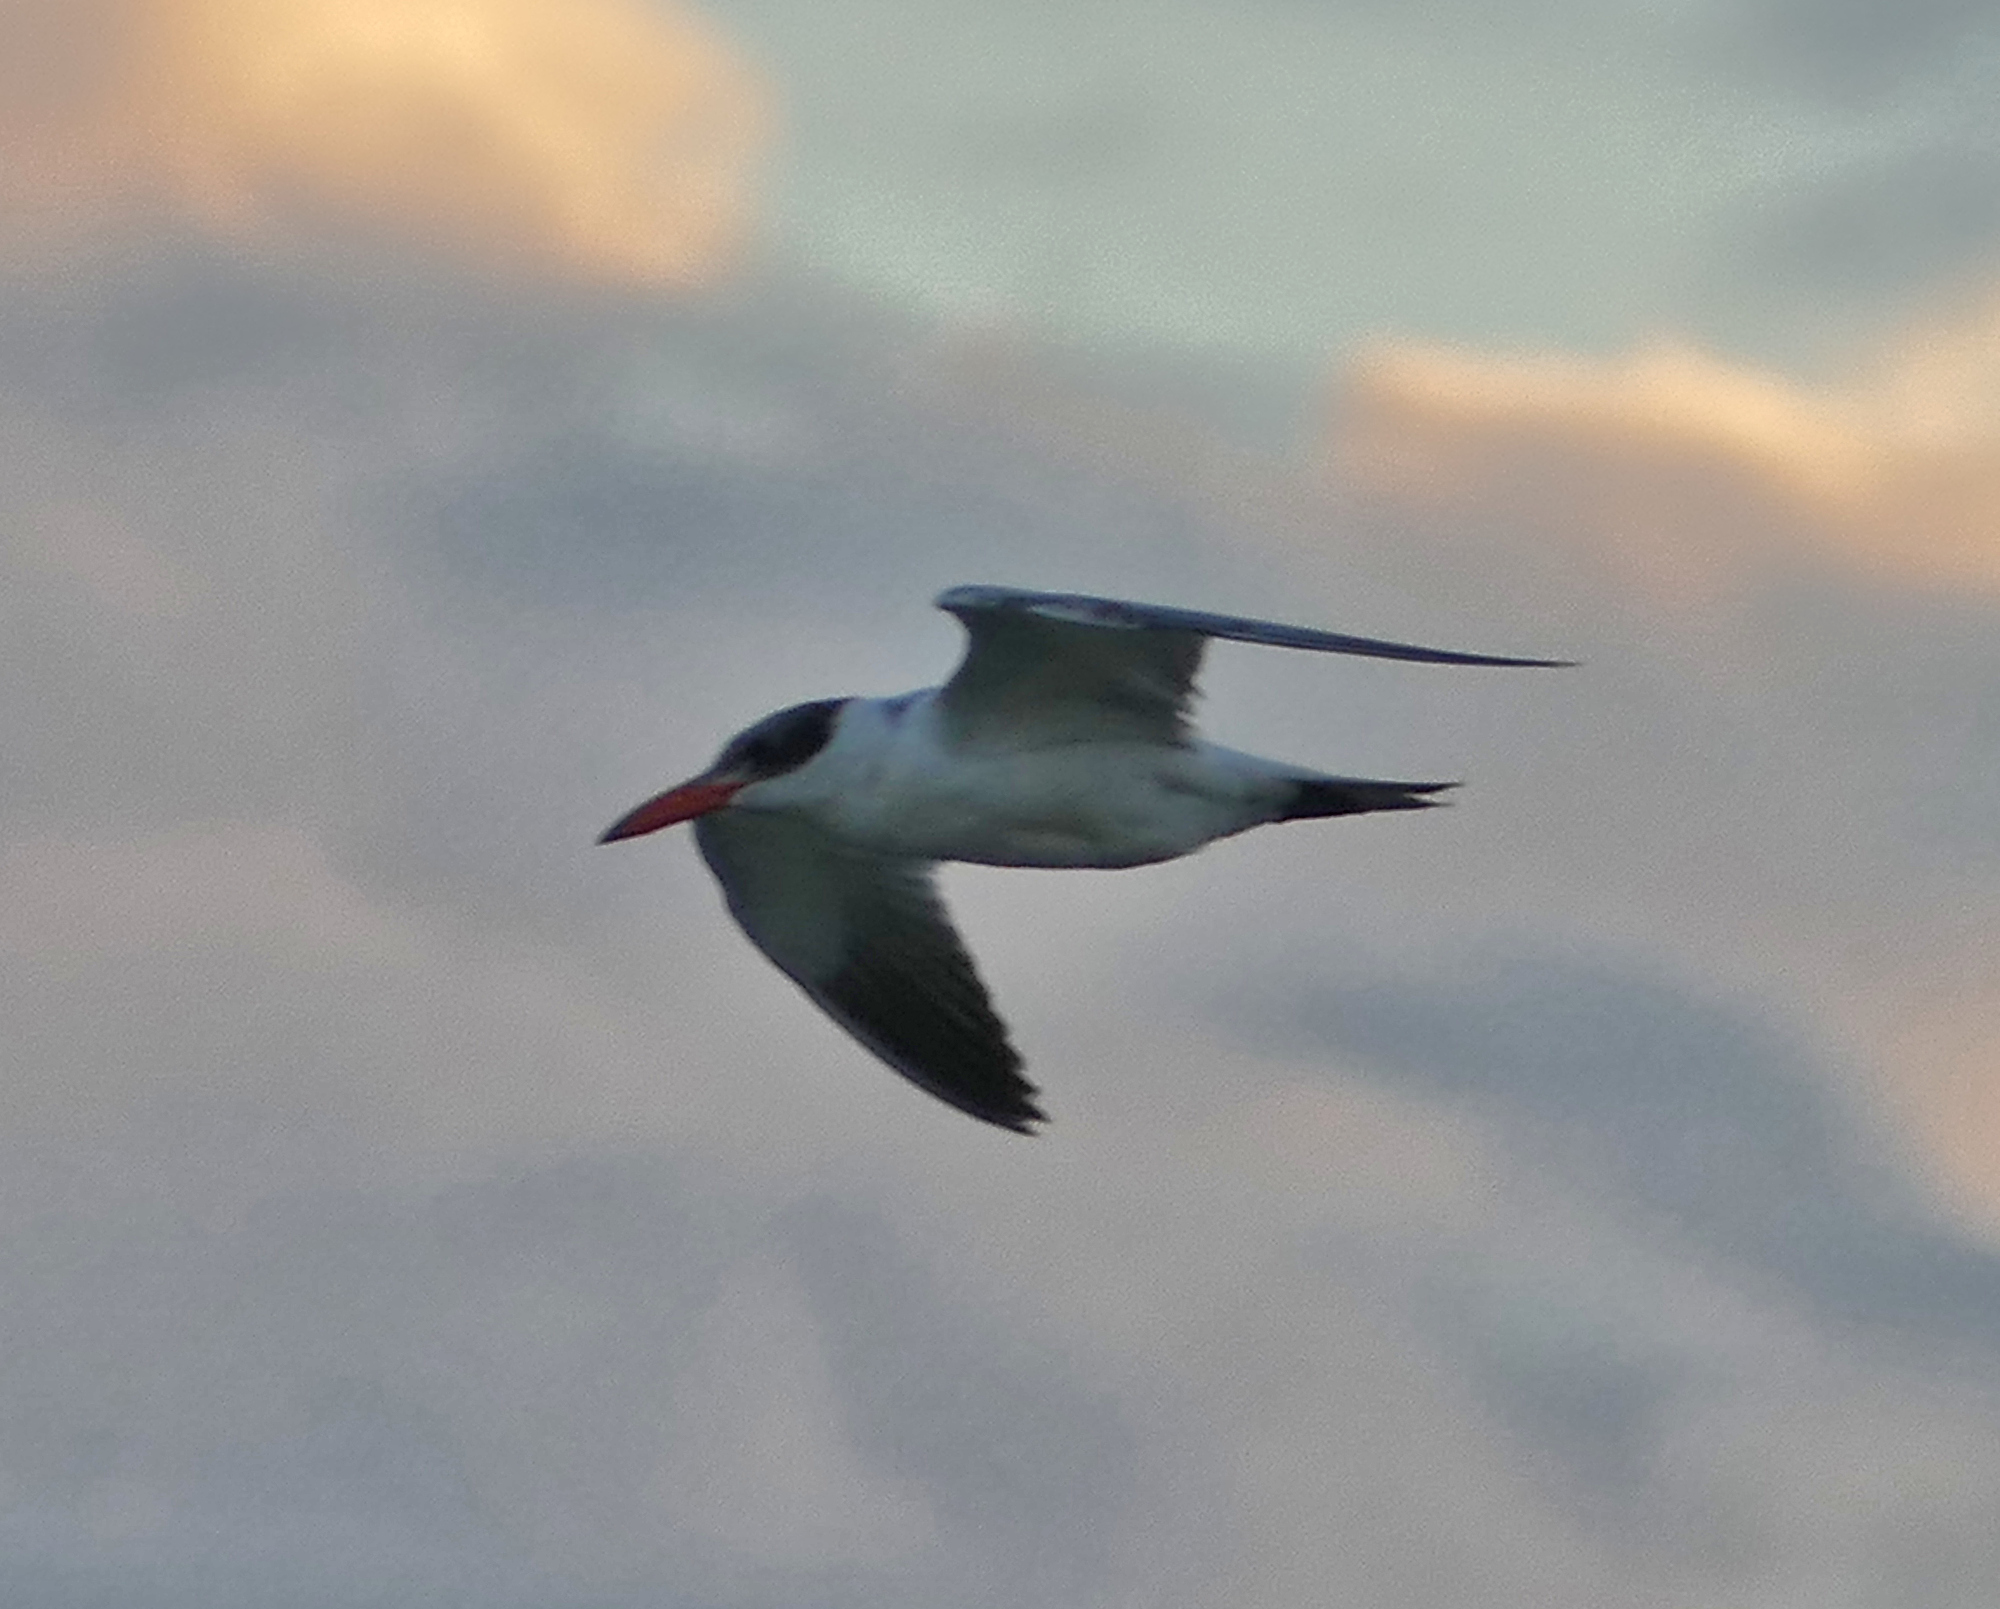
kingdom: Animalia
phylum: Chordata
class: Aves
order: Charadriiformes
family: Laridae
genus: Hydroprogne
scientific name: Hydroprogne caspia
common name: Caspian tern
